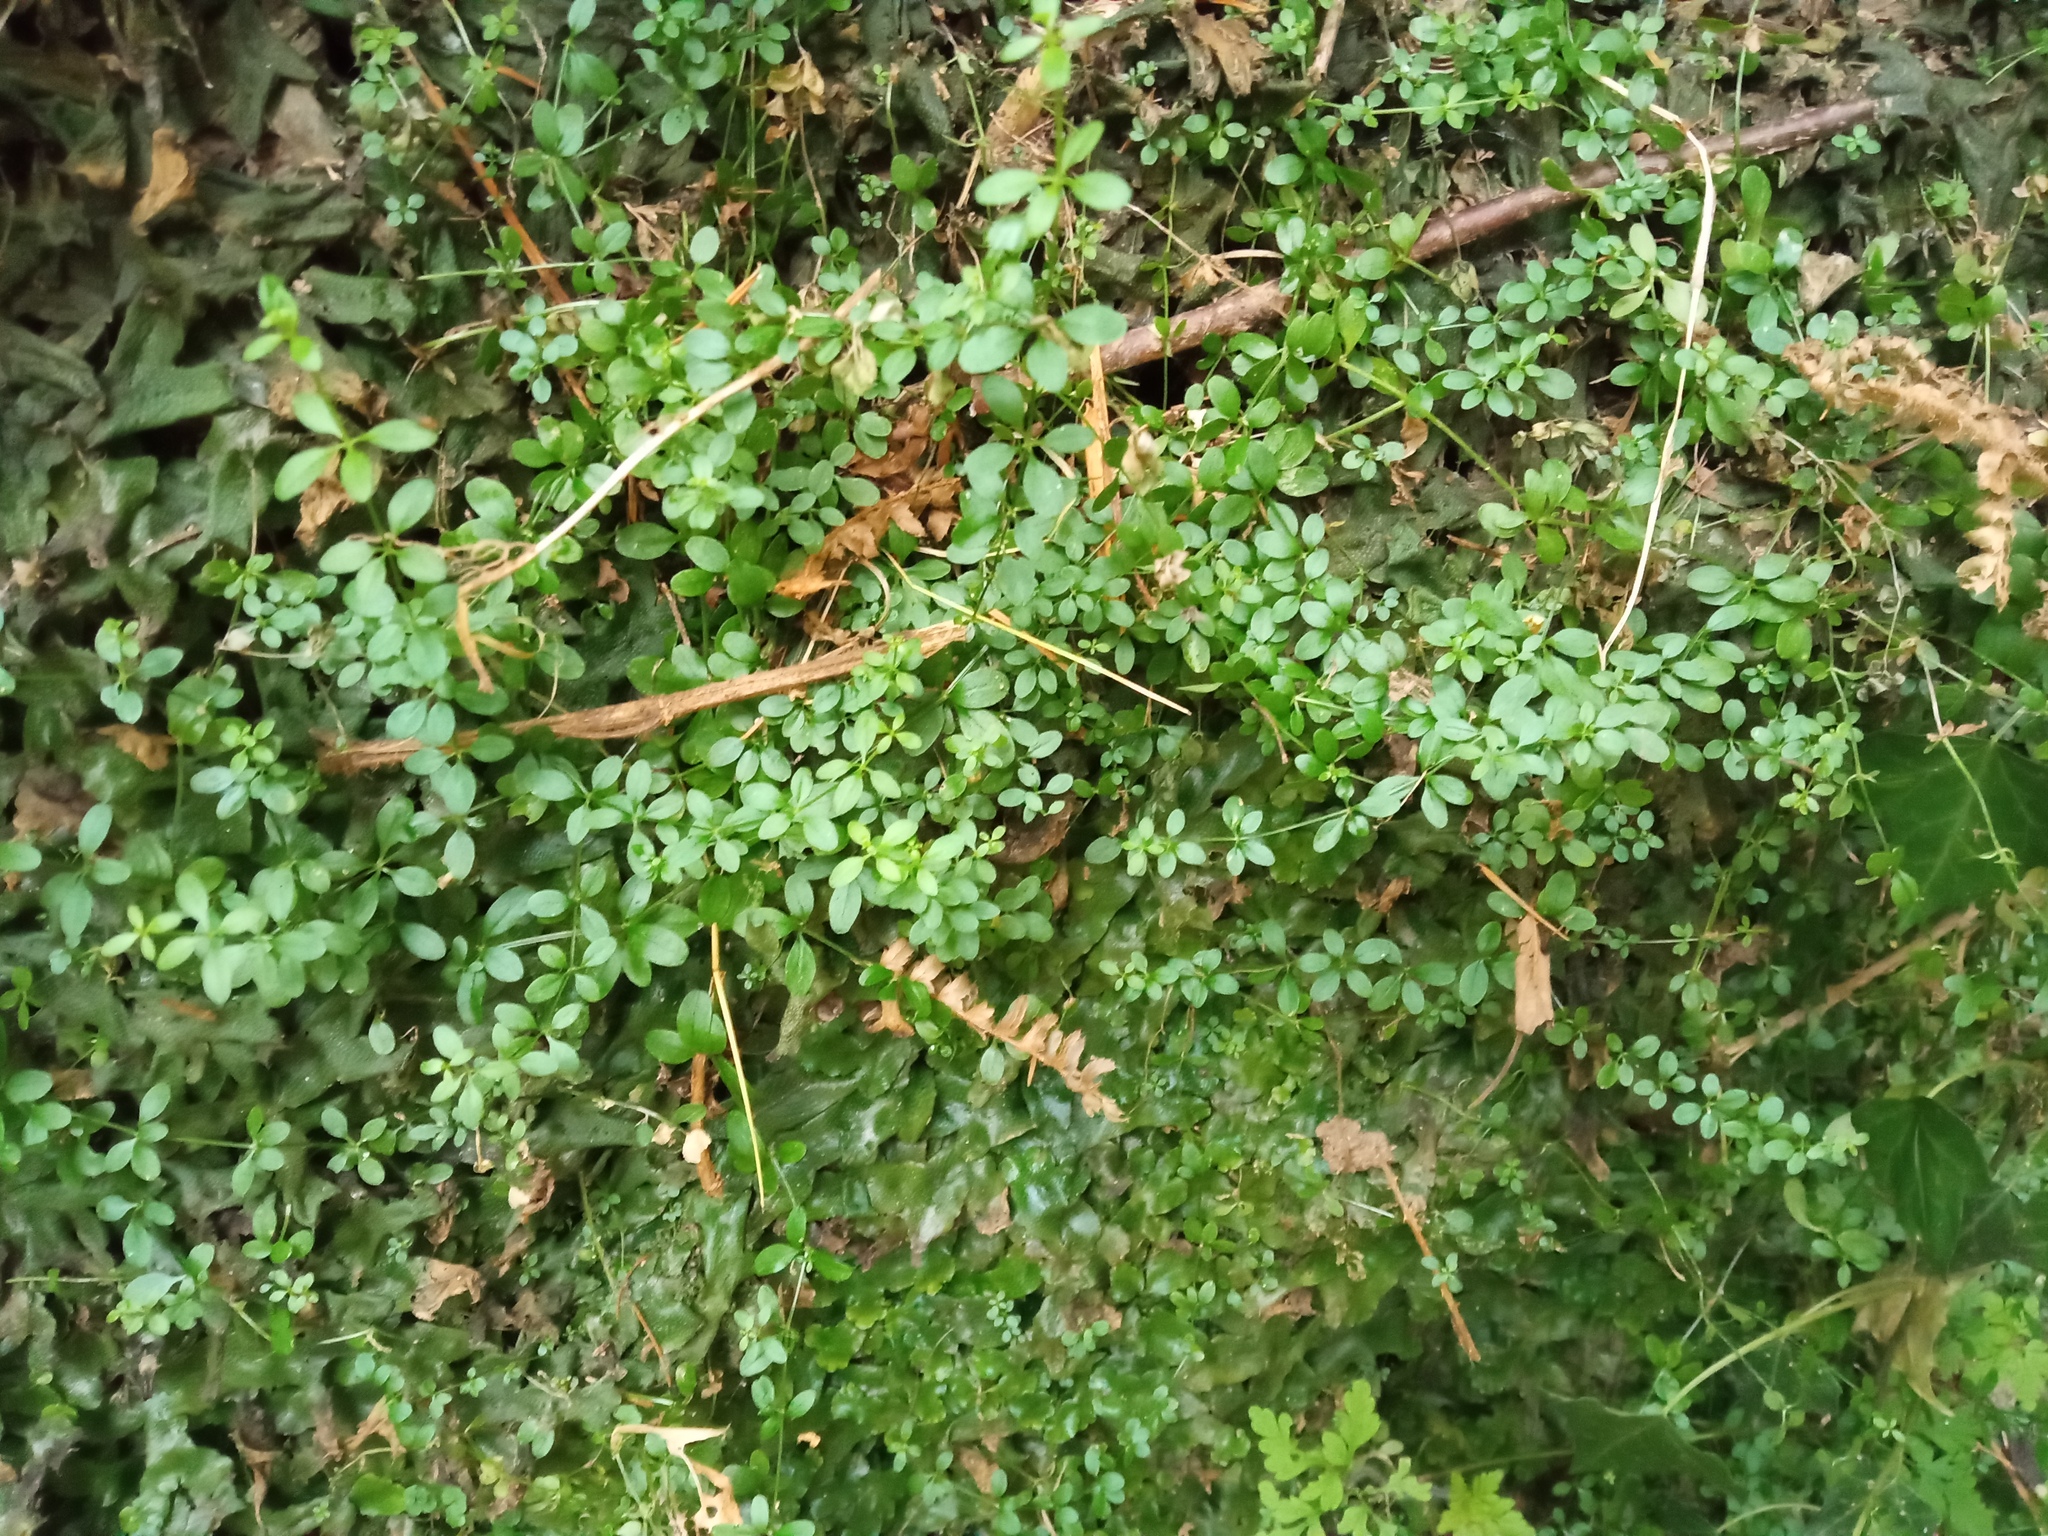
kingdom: Plantae
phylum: Tracheophyta
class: Magnoliopsida
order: Gentianales
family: Rubiaceae
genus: Galium
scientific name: Galium palustre
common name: Common marsh-bedstraw
